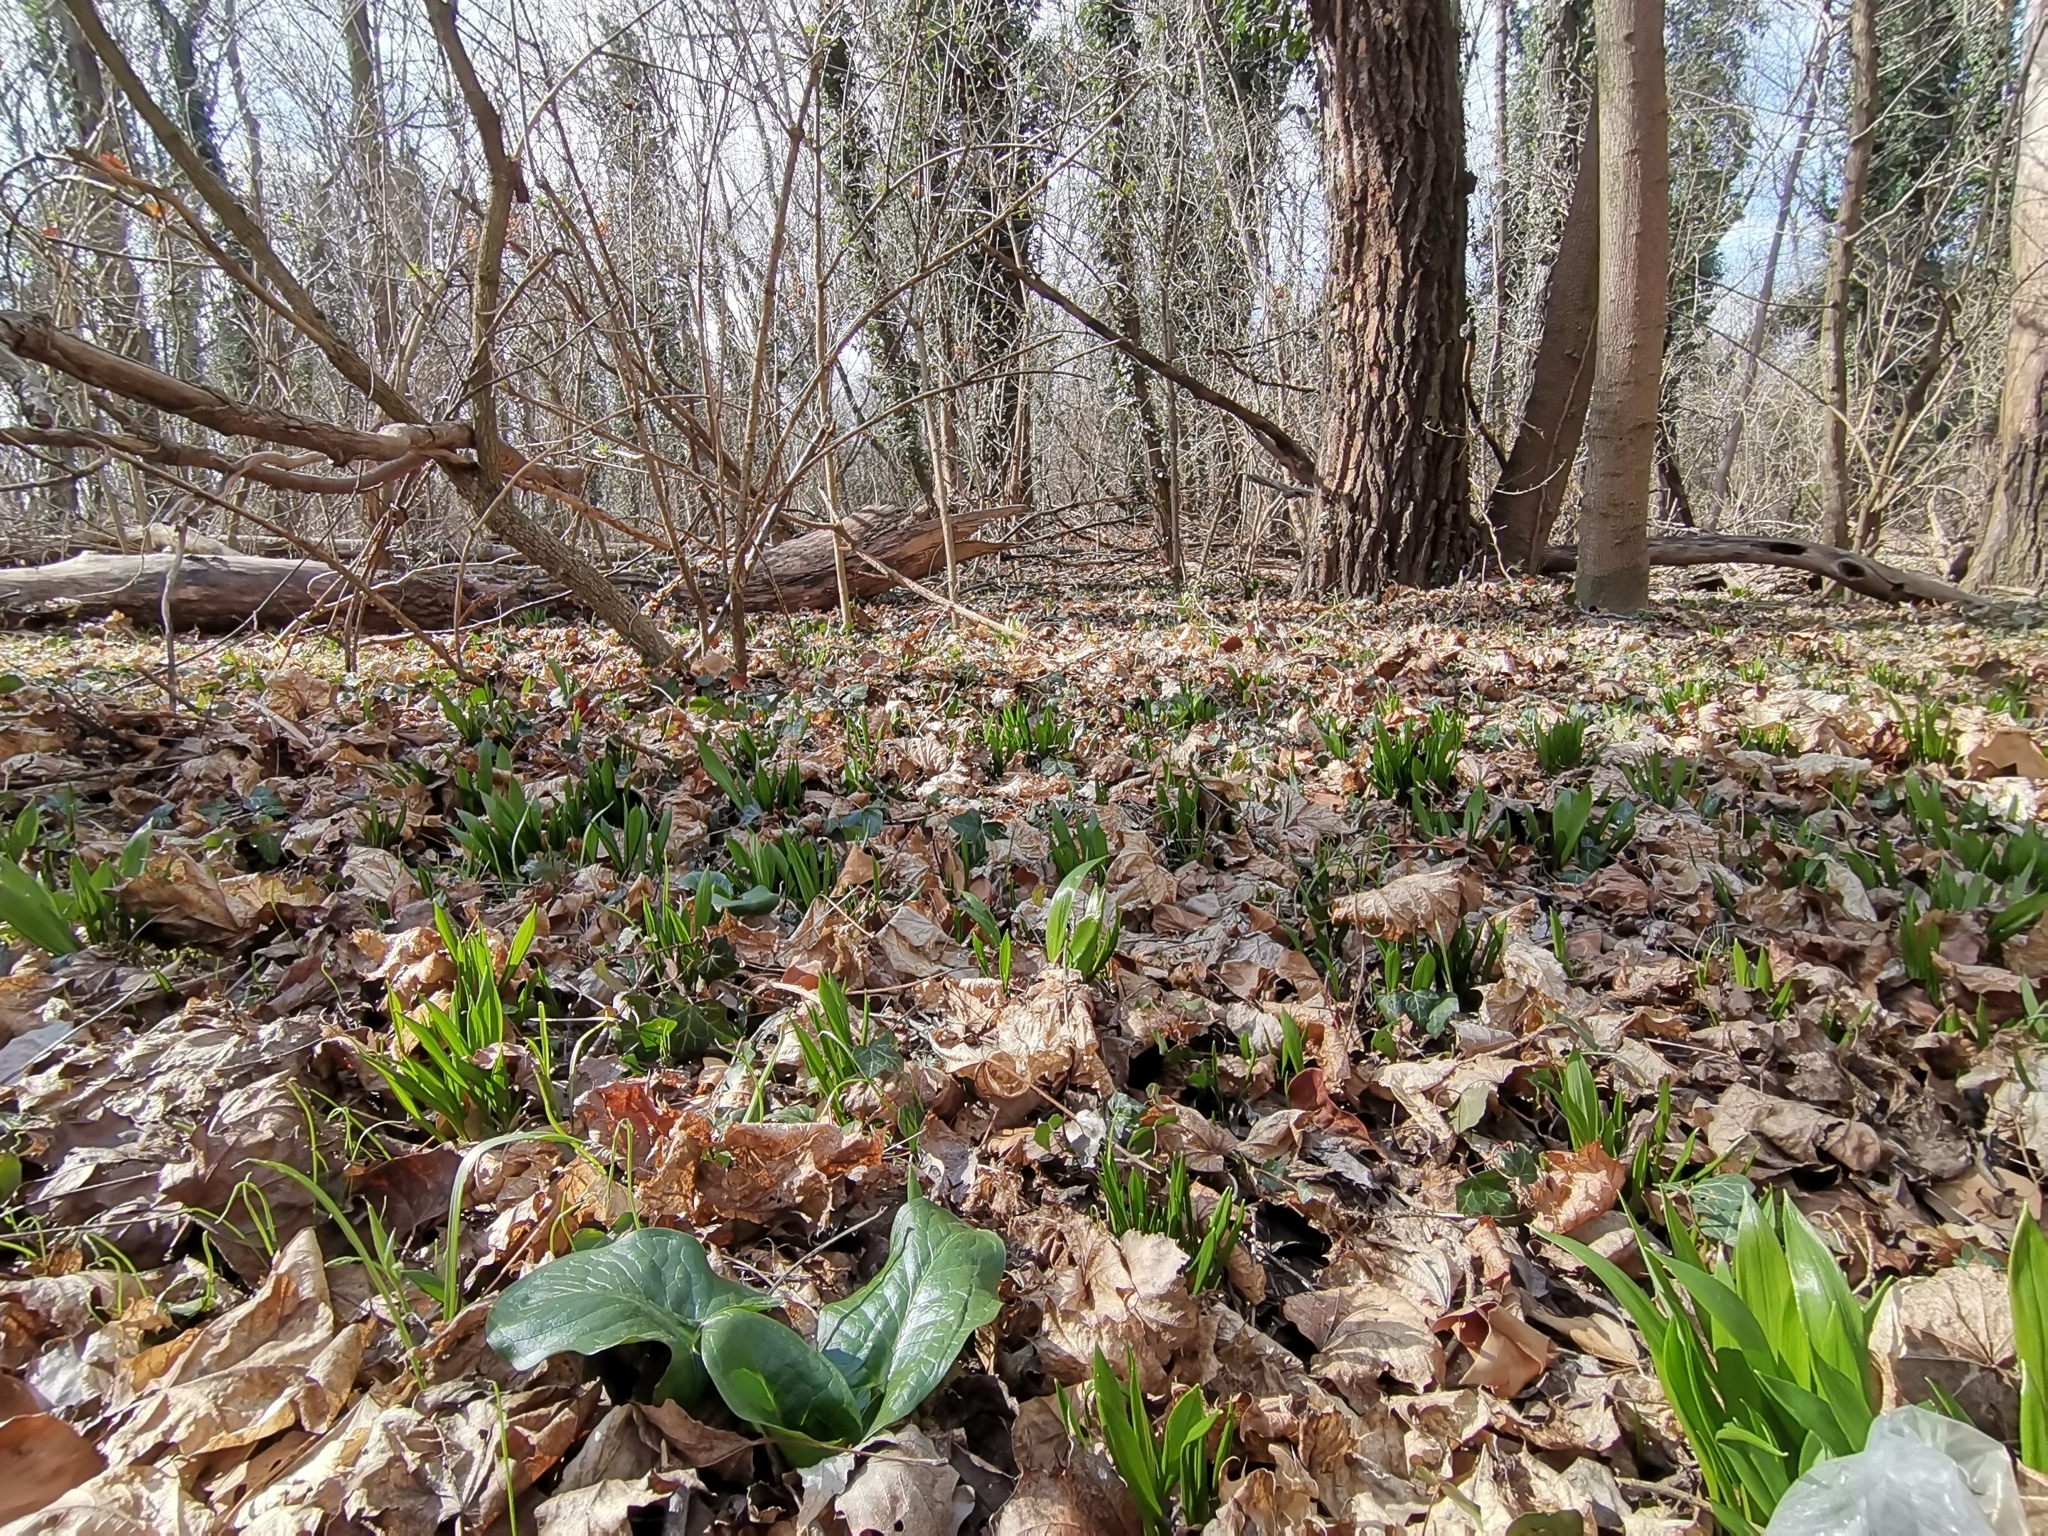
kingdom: Plantae
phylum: Tracheophyta
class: Liliopsida
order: Asparagales
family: Amaryllidaceae
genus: Allium
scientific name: Allium ursinum
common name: Ramsons
